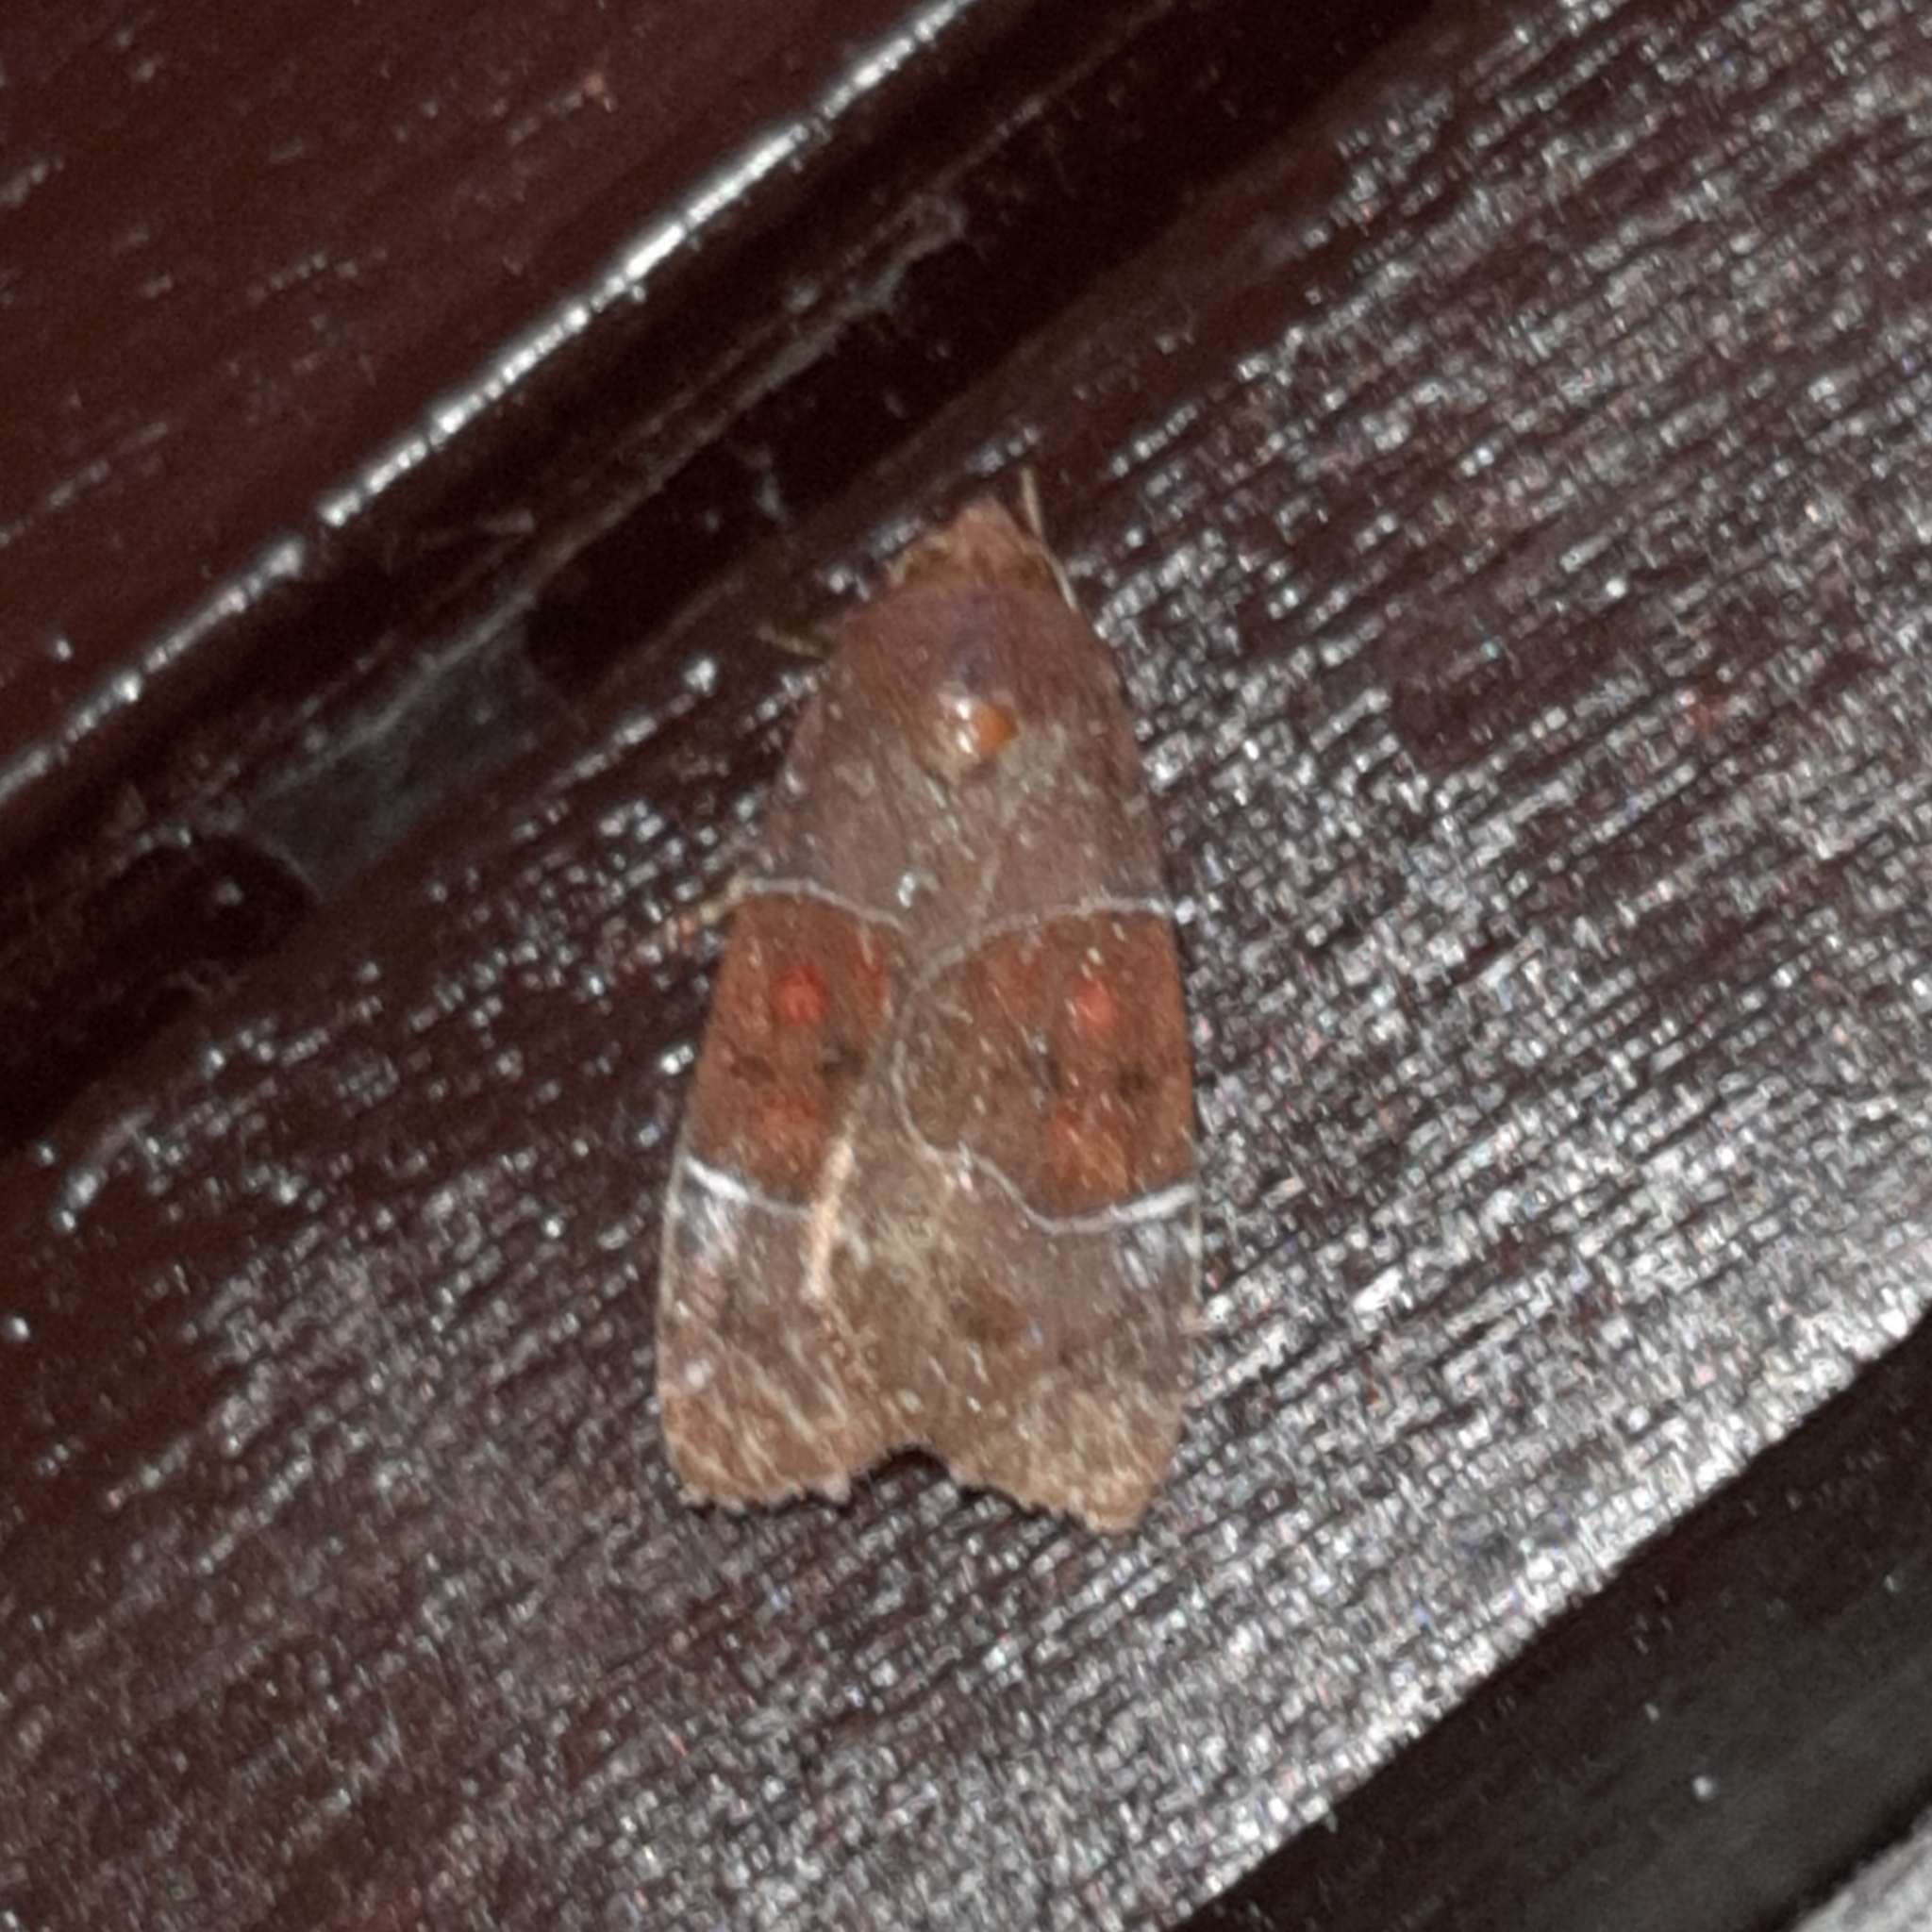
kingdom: Animalia
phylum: Arthropoda
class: Insecta
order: Lepidoptera
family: Noctuidae
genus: Hampsonodes
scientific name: Hampsonodes mastoides
